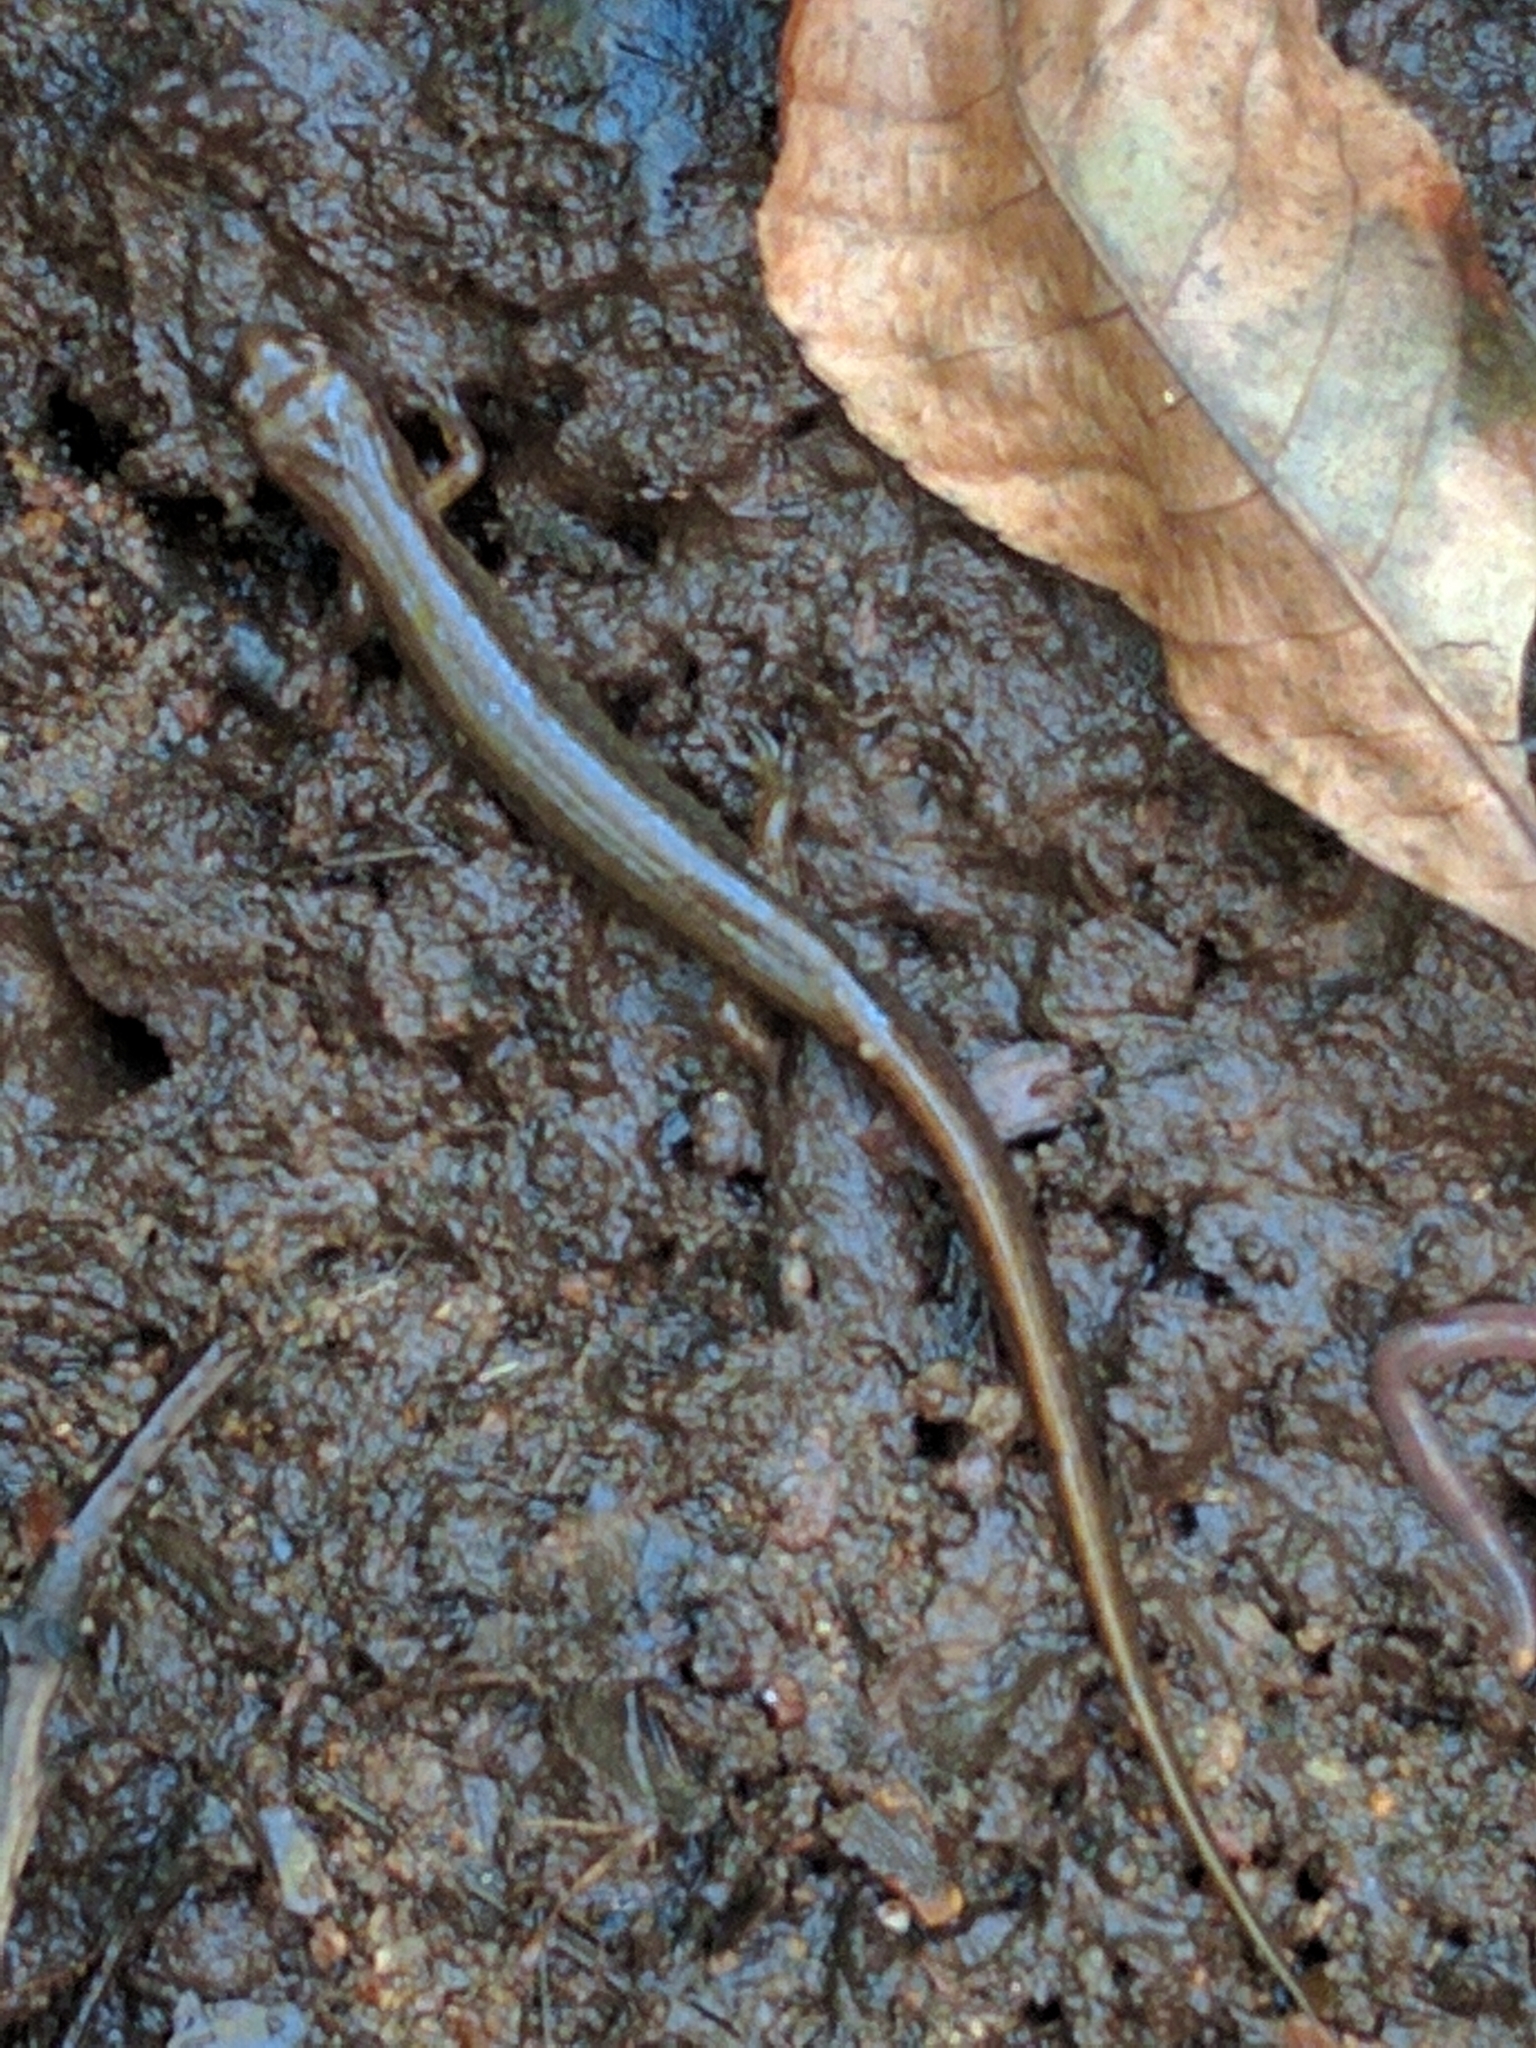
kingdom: Animalia
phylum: Chordata
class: Amphibia
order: Caudata
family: Plethodontidae
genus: Eurycea
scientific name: Eurycea bislineata
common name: Northern two-lined salamander
